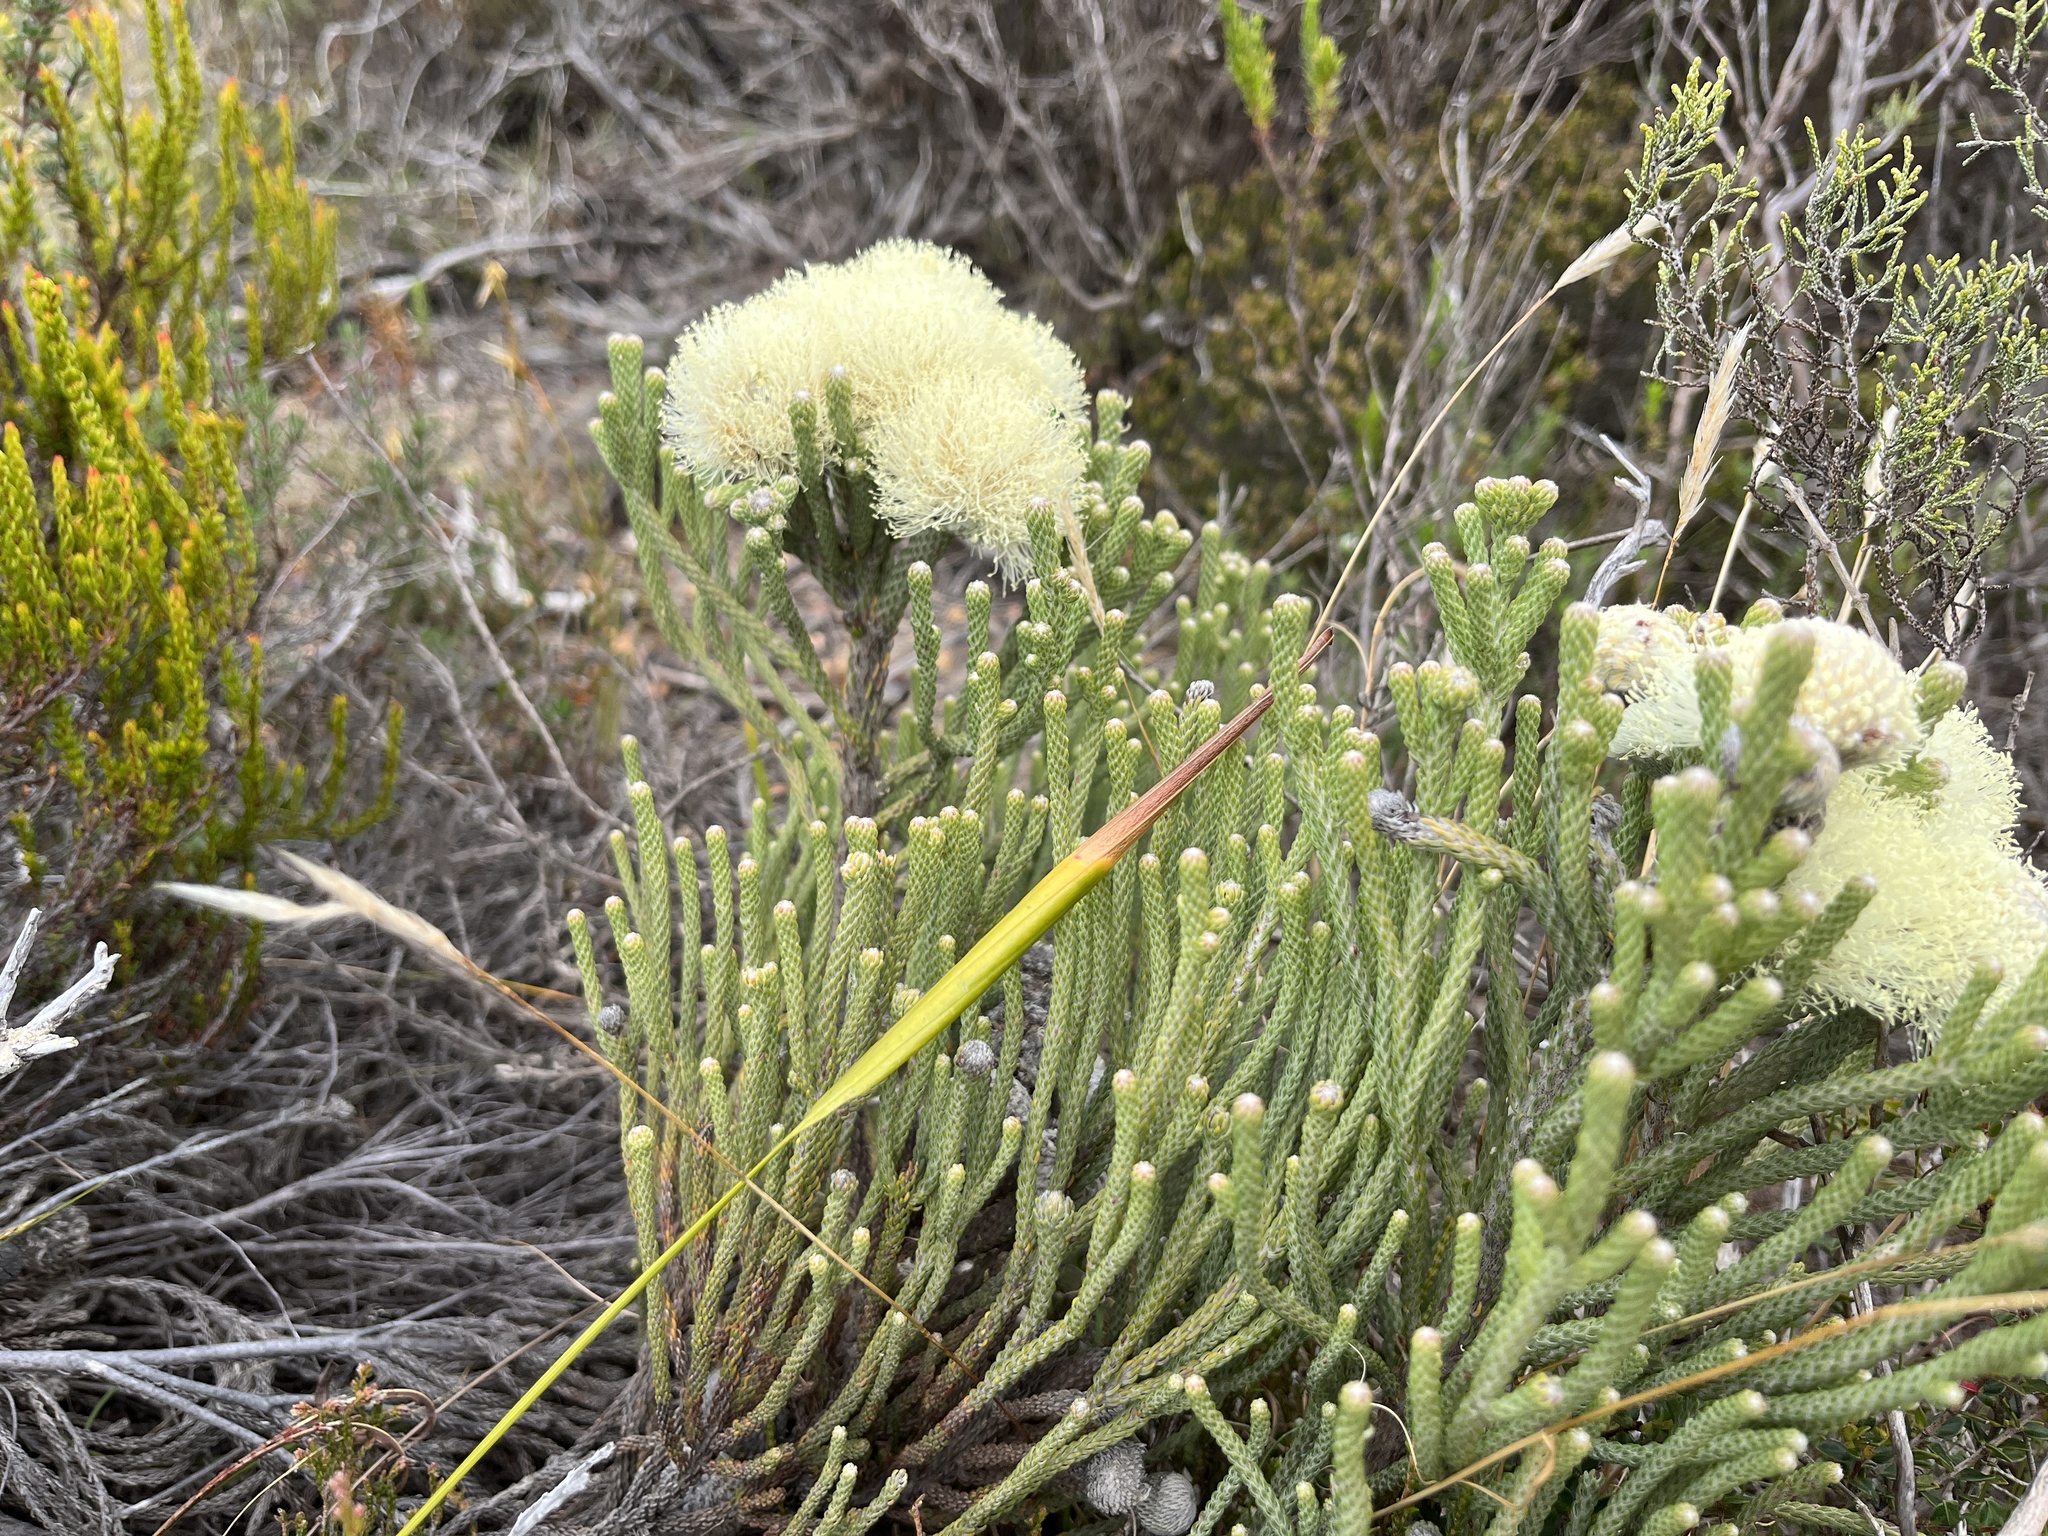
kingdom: Plantae
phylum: Tracheophyta
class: Magnoliopsida
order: Bruniales
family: Bruniaceae
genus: Brunia
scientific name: Brunia laevis
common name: Silver brunia
